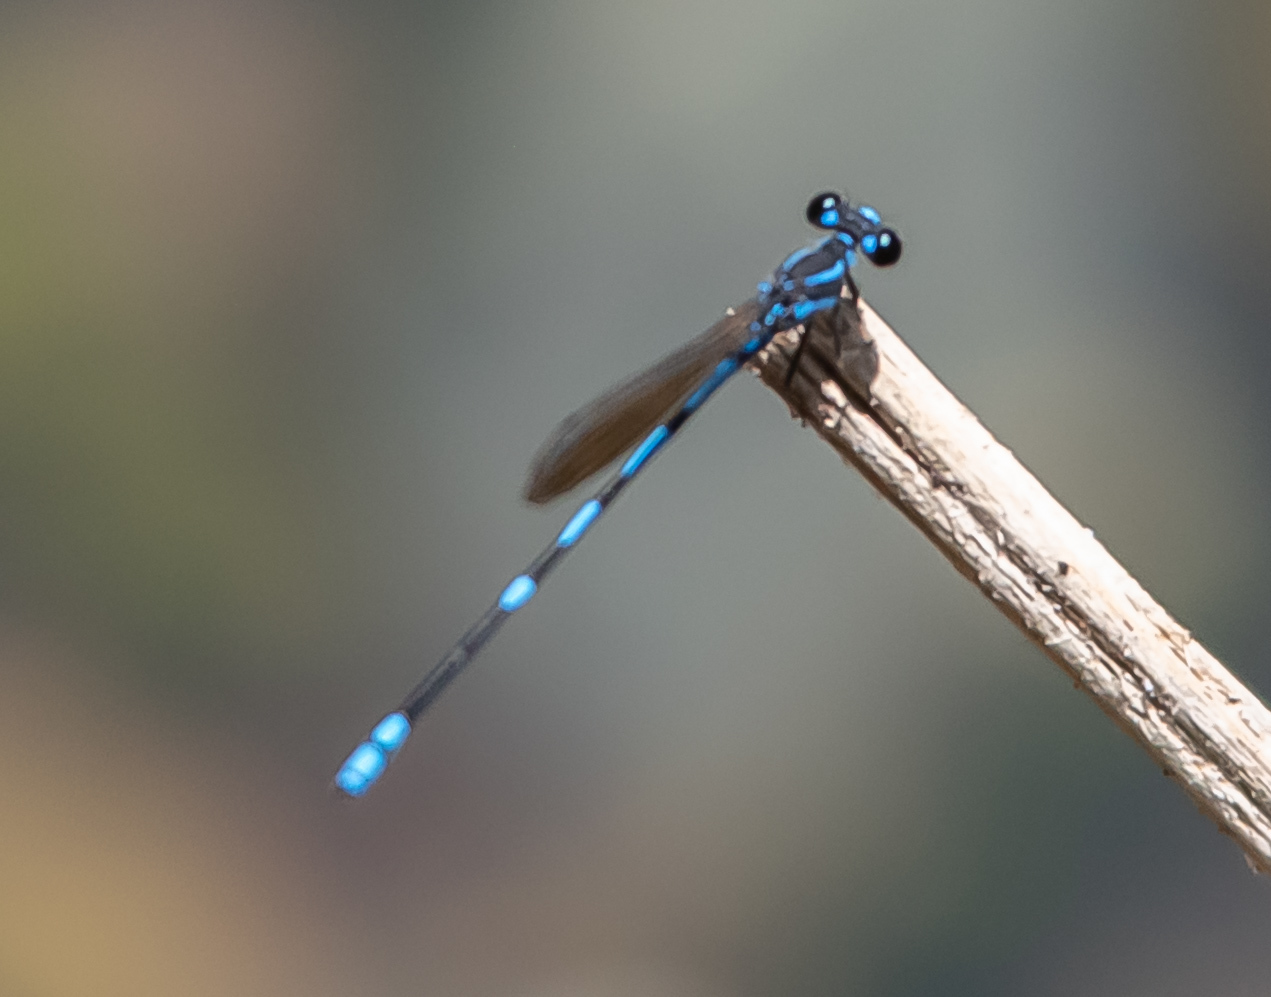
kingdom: Animalia
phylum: Arthropoda
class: Insecta
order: Odonata
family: Coenagrionidae
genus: Argia
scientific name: Argia adamsi
